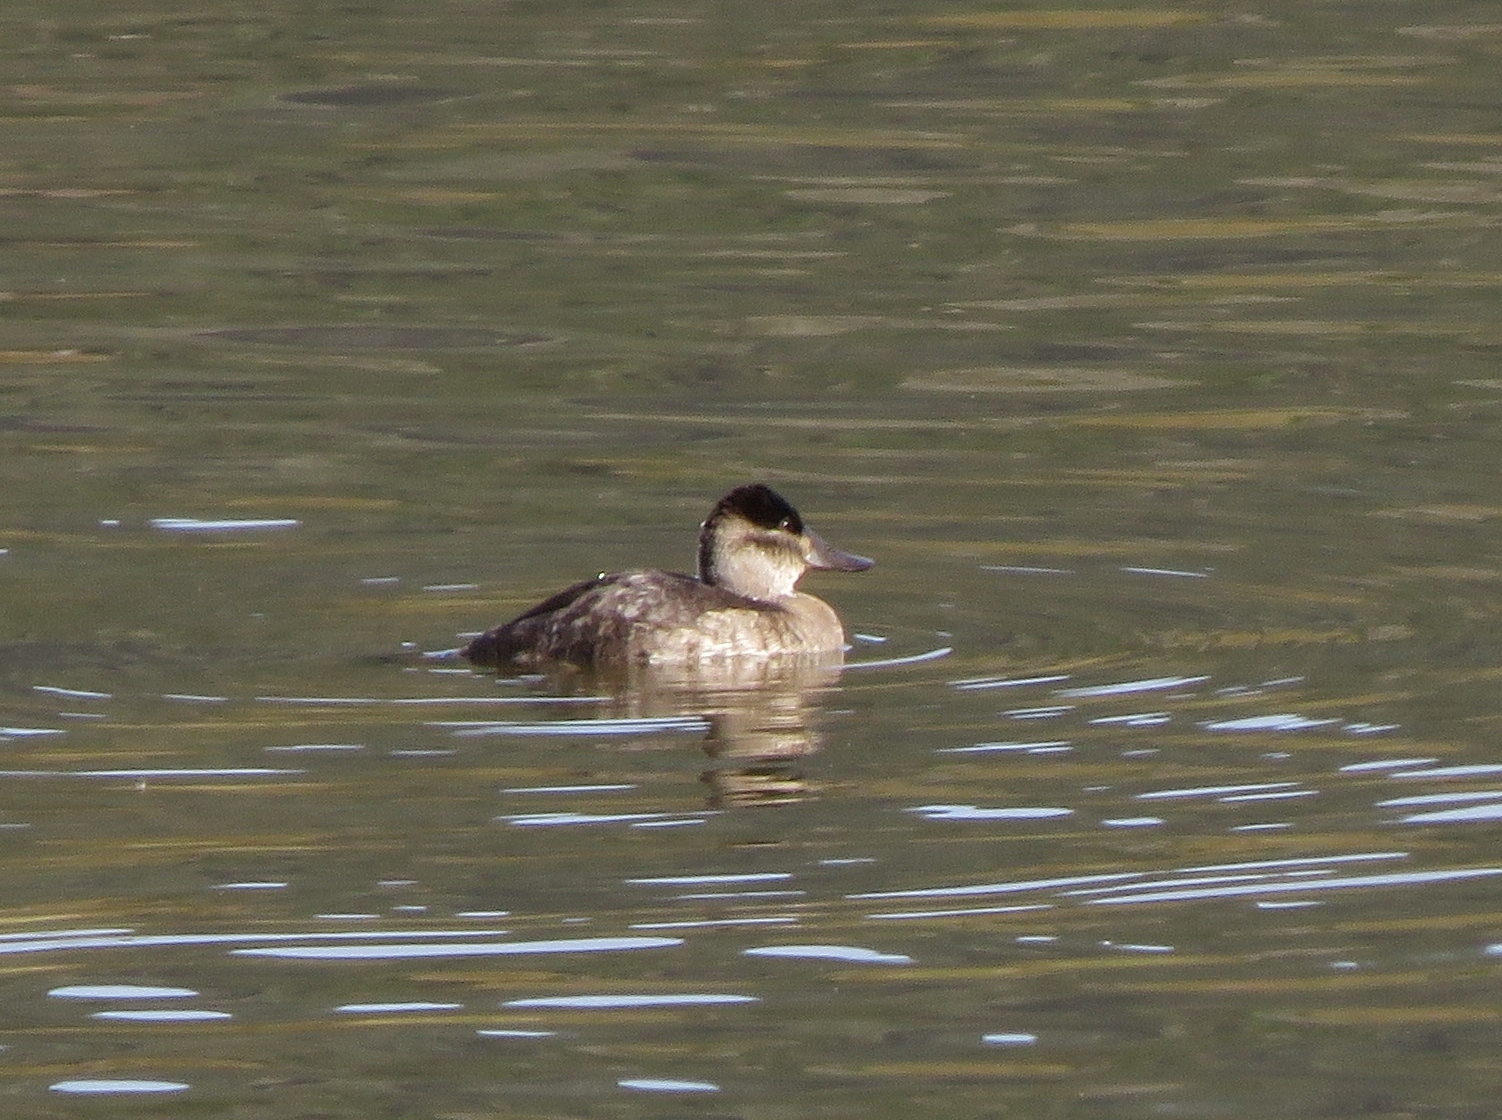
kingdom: Animalia
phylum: Chordata
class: Aves
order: Anseriformes
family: Anatidae
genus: Oxyura
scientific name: Oxyura jamaicensis
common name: Ruddy duck
